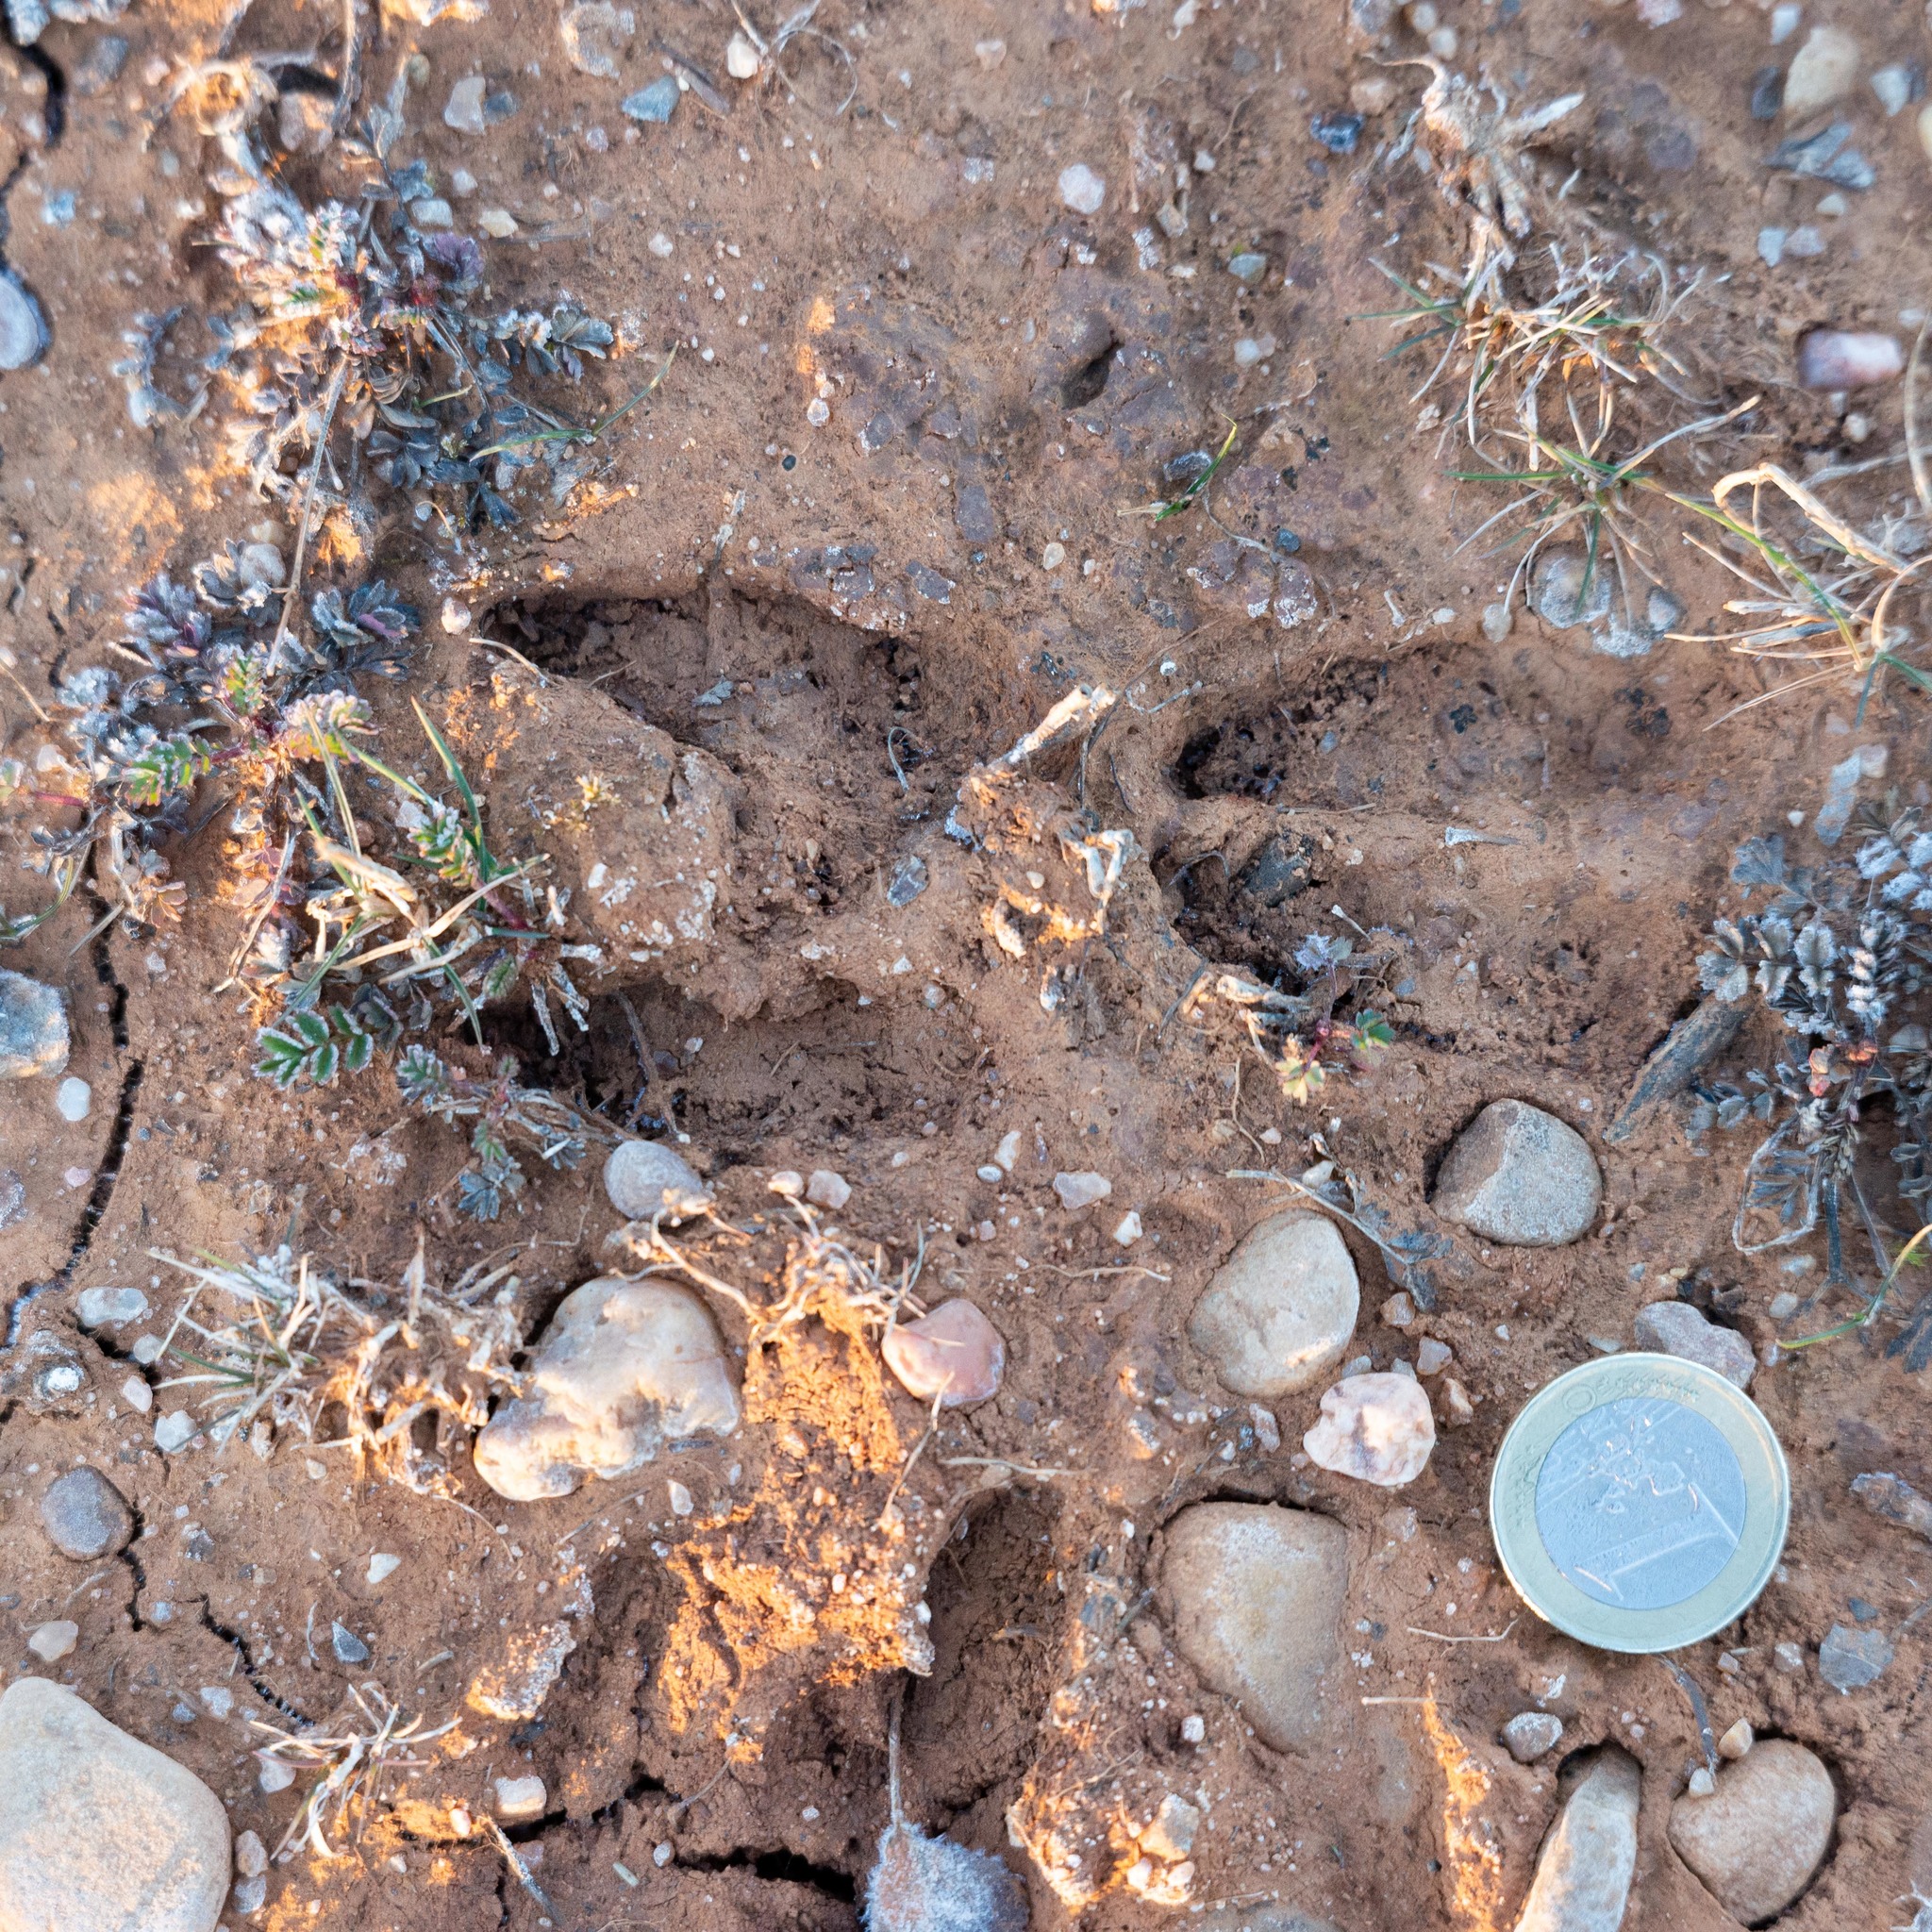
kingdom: Animalia
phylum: Chordata
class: Mammalia
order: Artiodactyla
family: Cervidae
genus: Capreolus
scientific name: Capreolus capreolus
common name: Western roe deer
